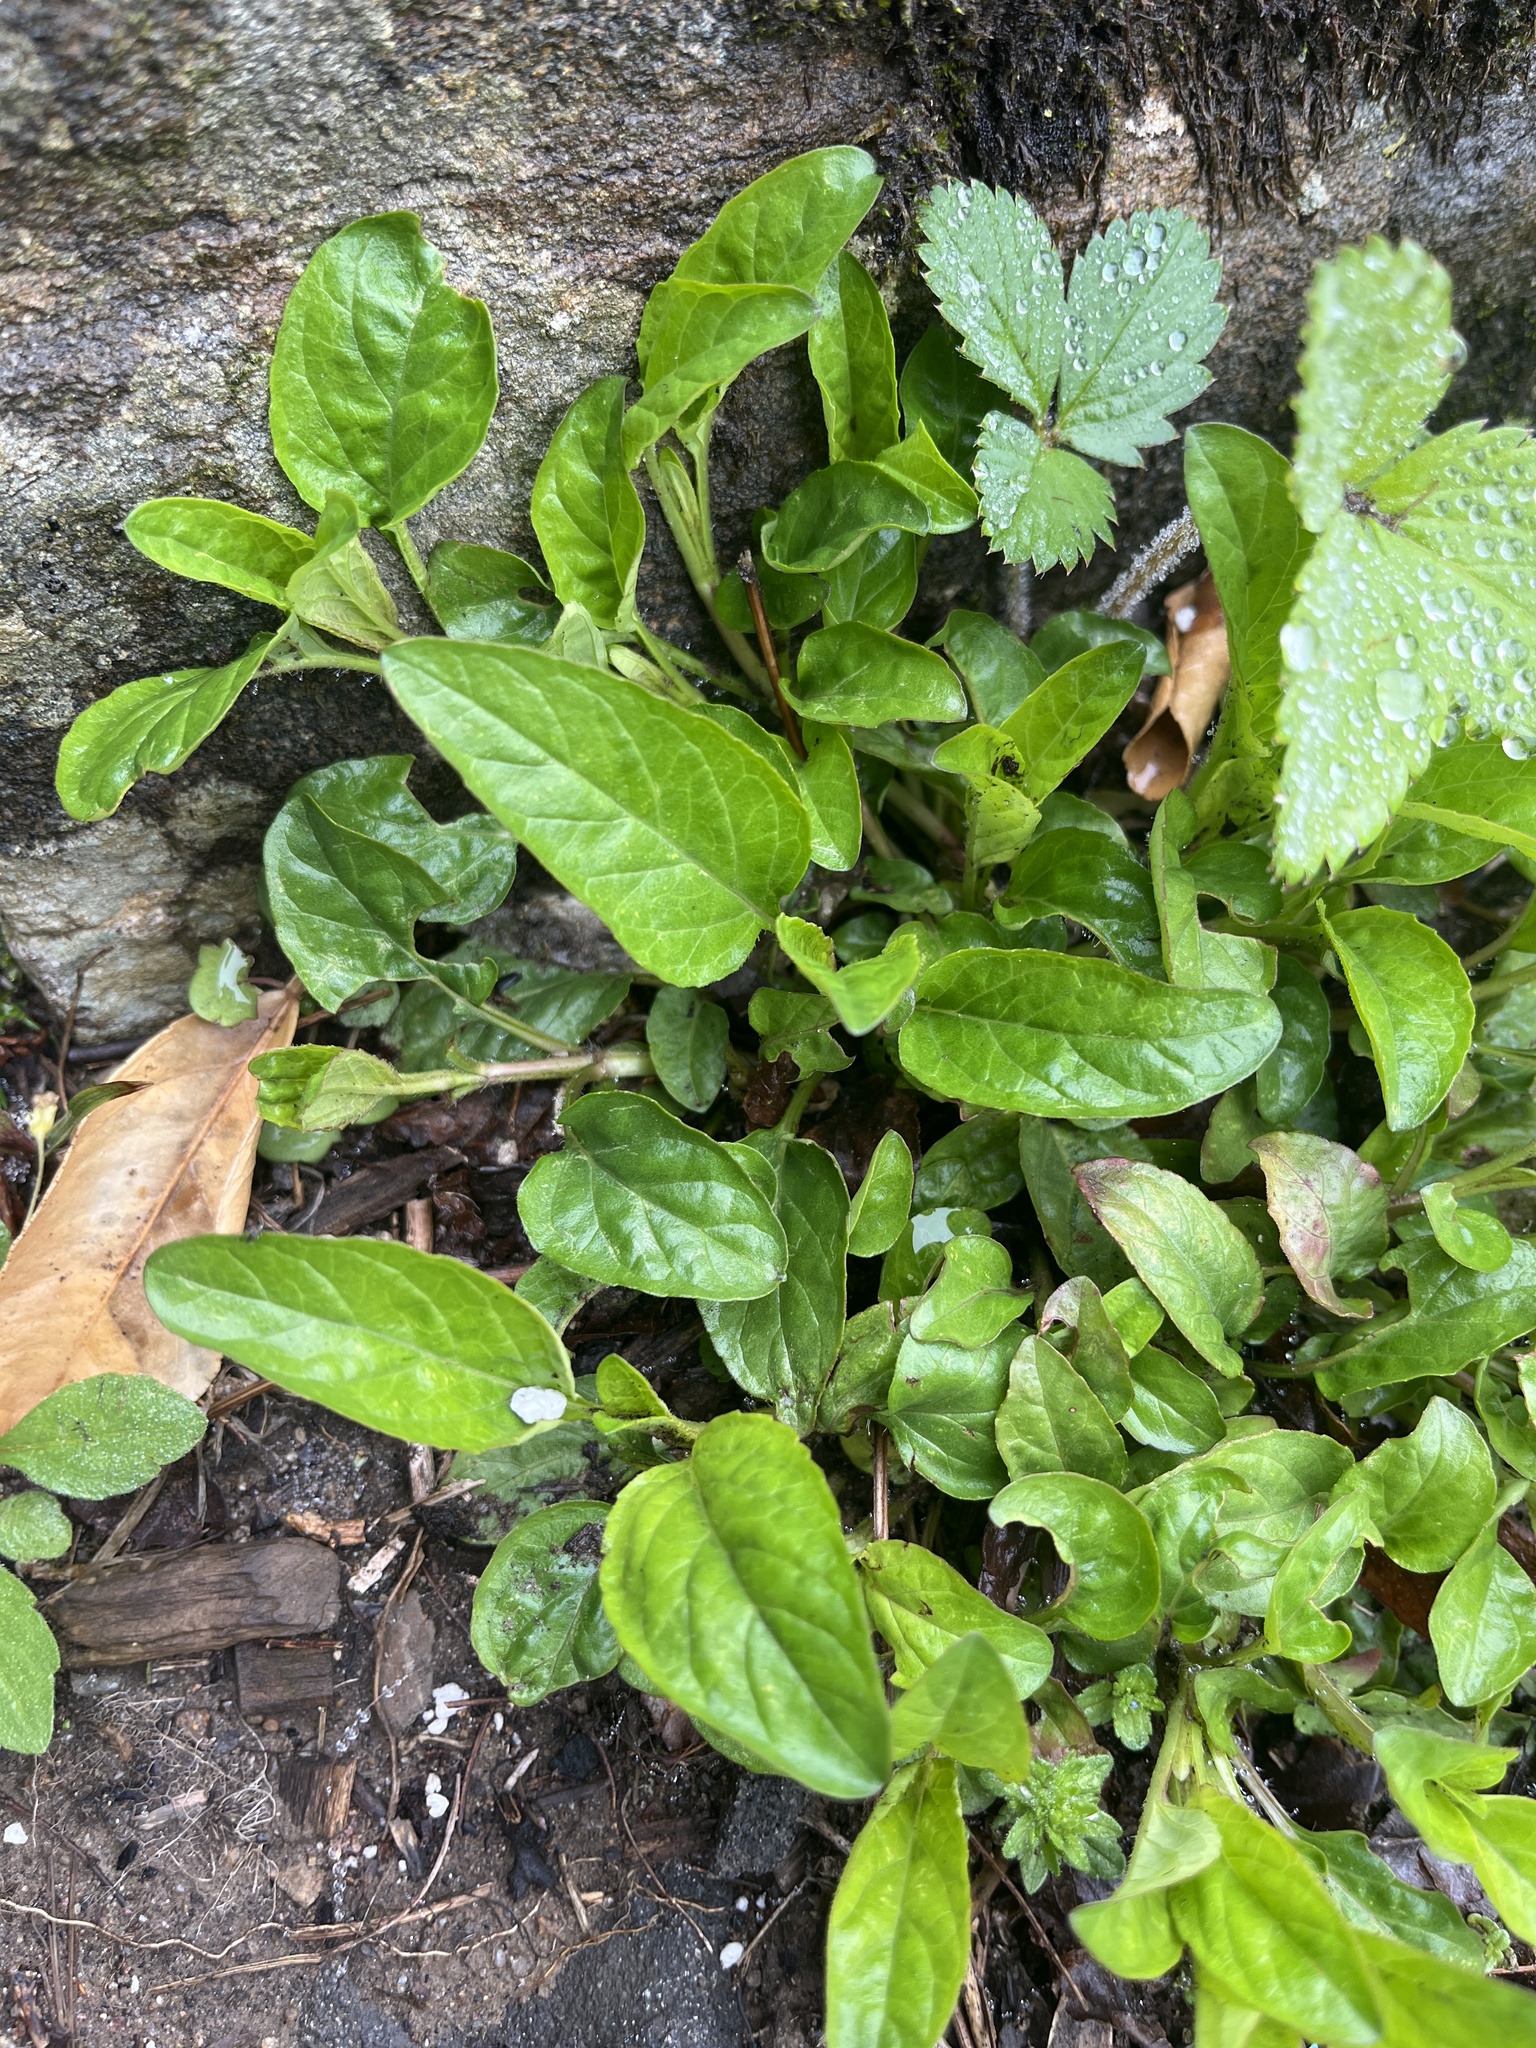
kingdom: Plantae
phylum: Tracheophyta
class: Magnoliopsida
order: Lamiales
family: Lamiaceae
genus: Prunella
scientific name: Prunella vulgaris
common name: Heal-all
